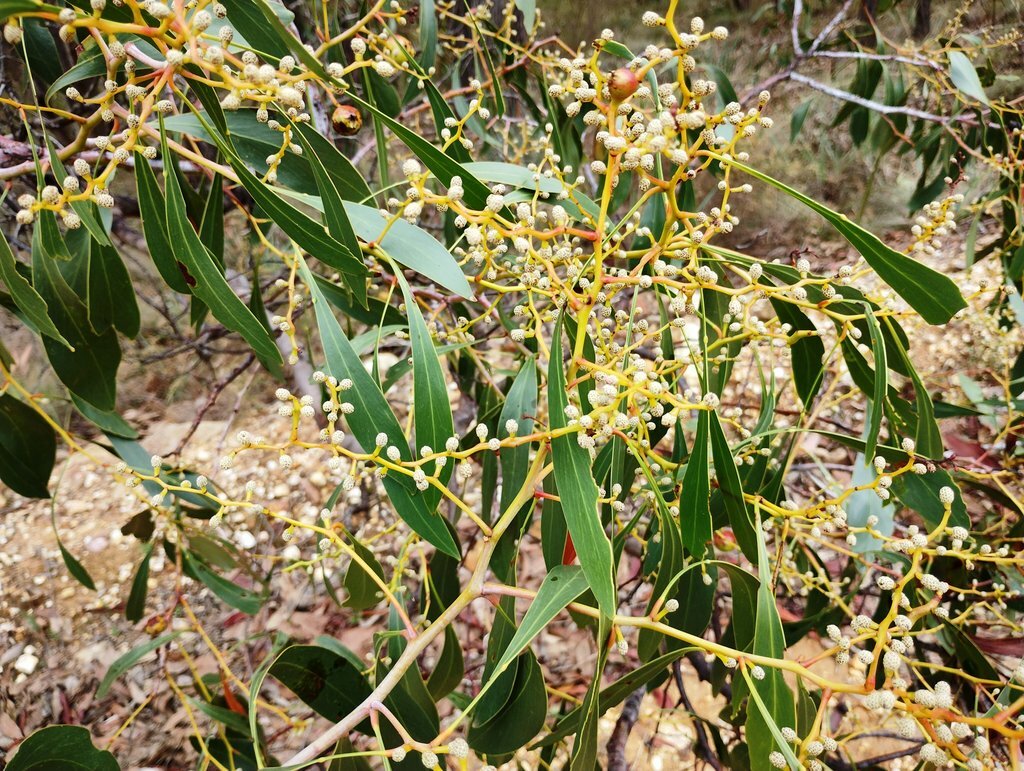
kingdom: Plantae
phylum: Tracheophyta
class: Magnoliopsida
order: Fabales
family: Fabaceae
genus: Acacia
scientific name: Acacia pycnantha
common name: Golden wattle
